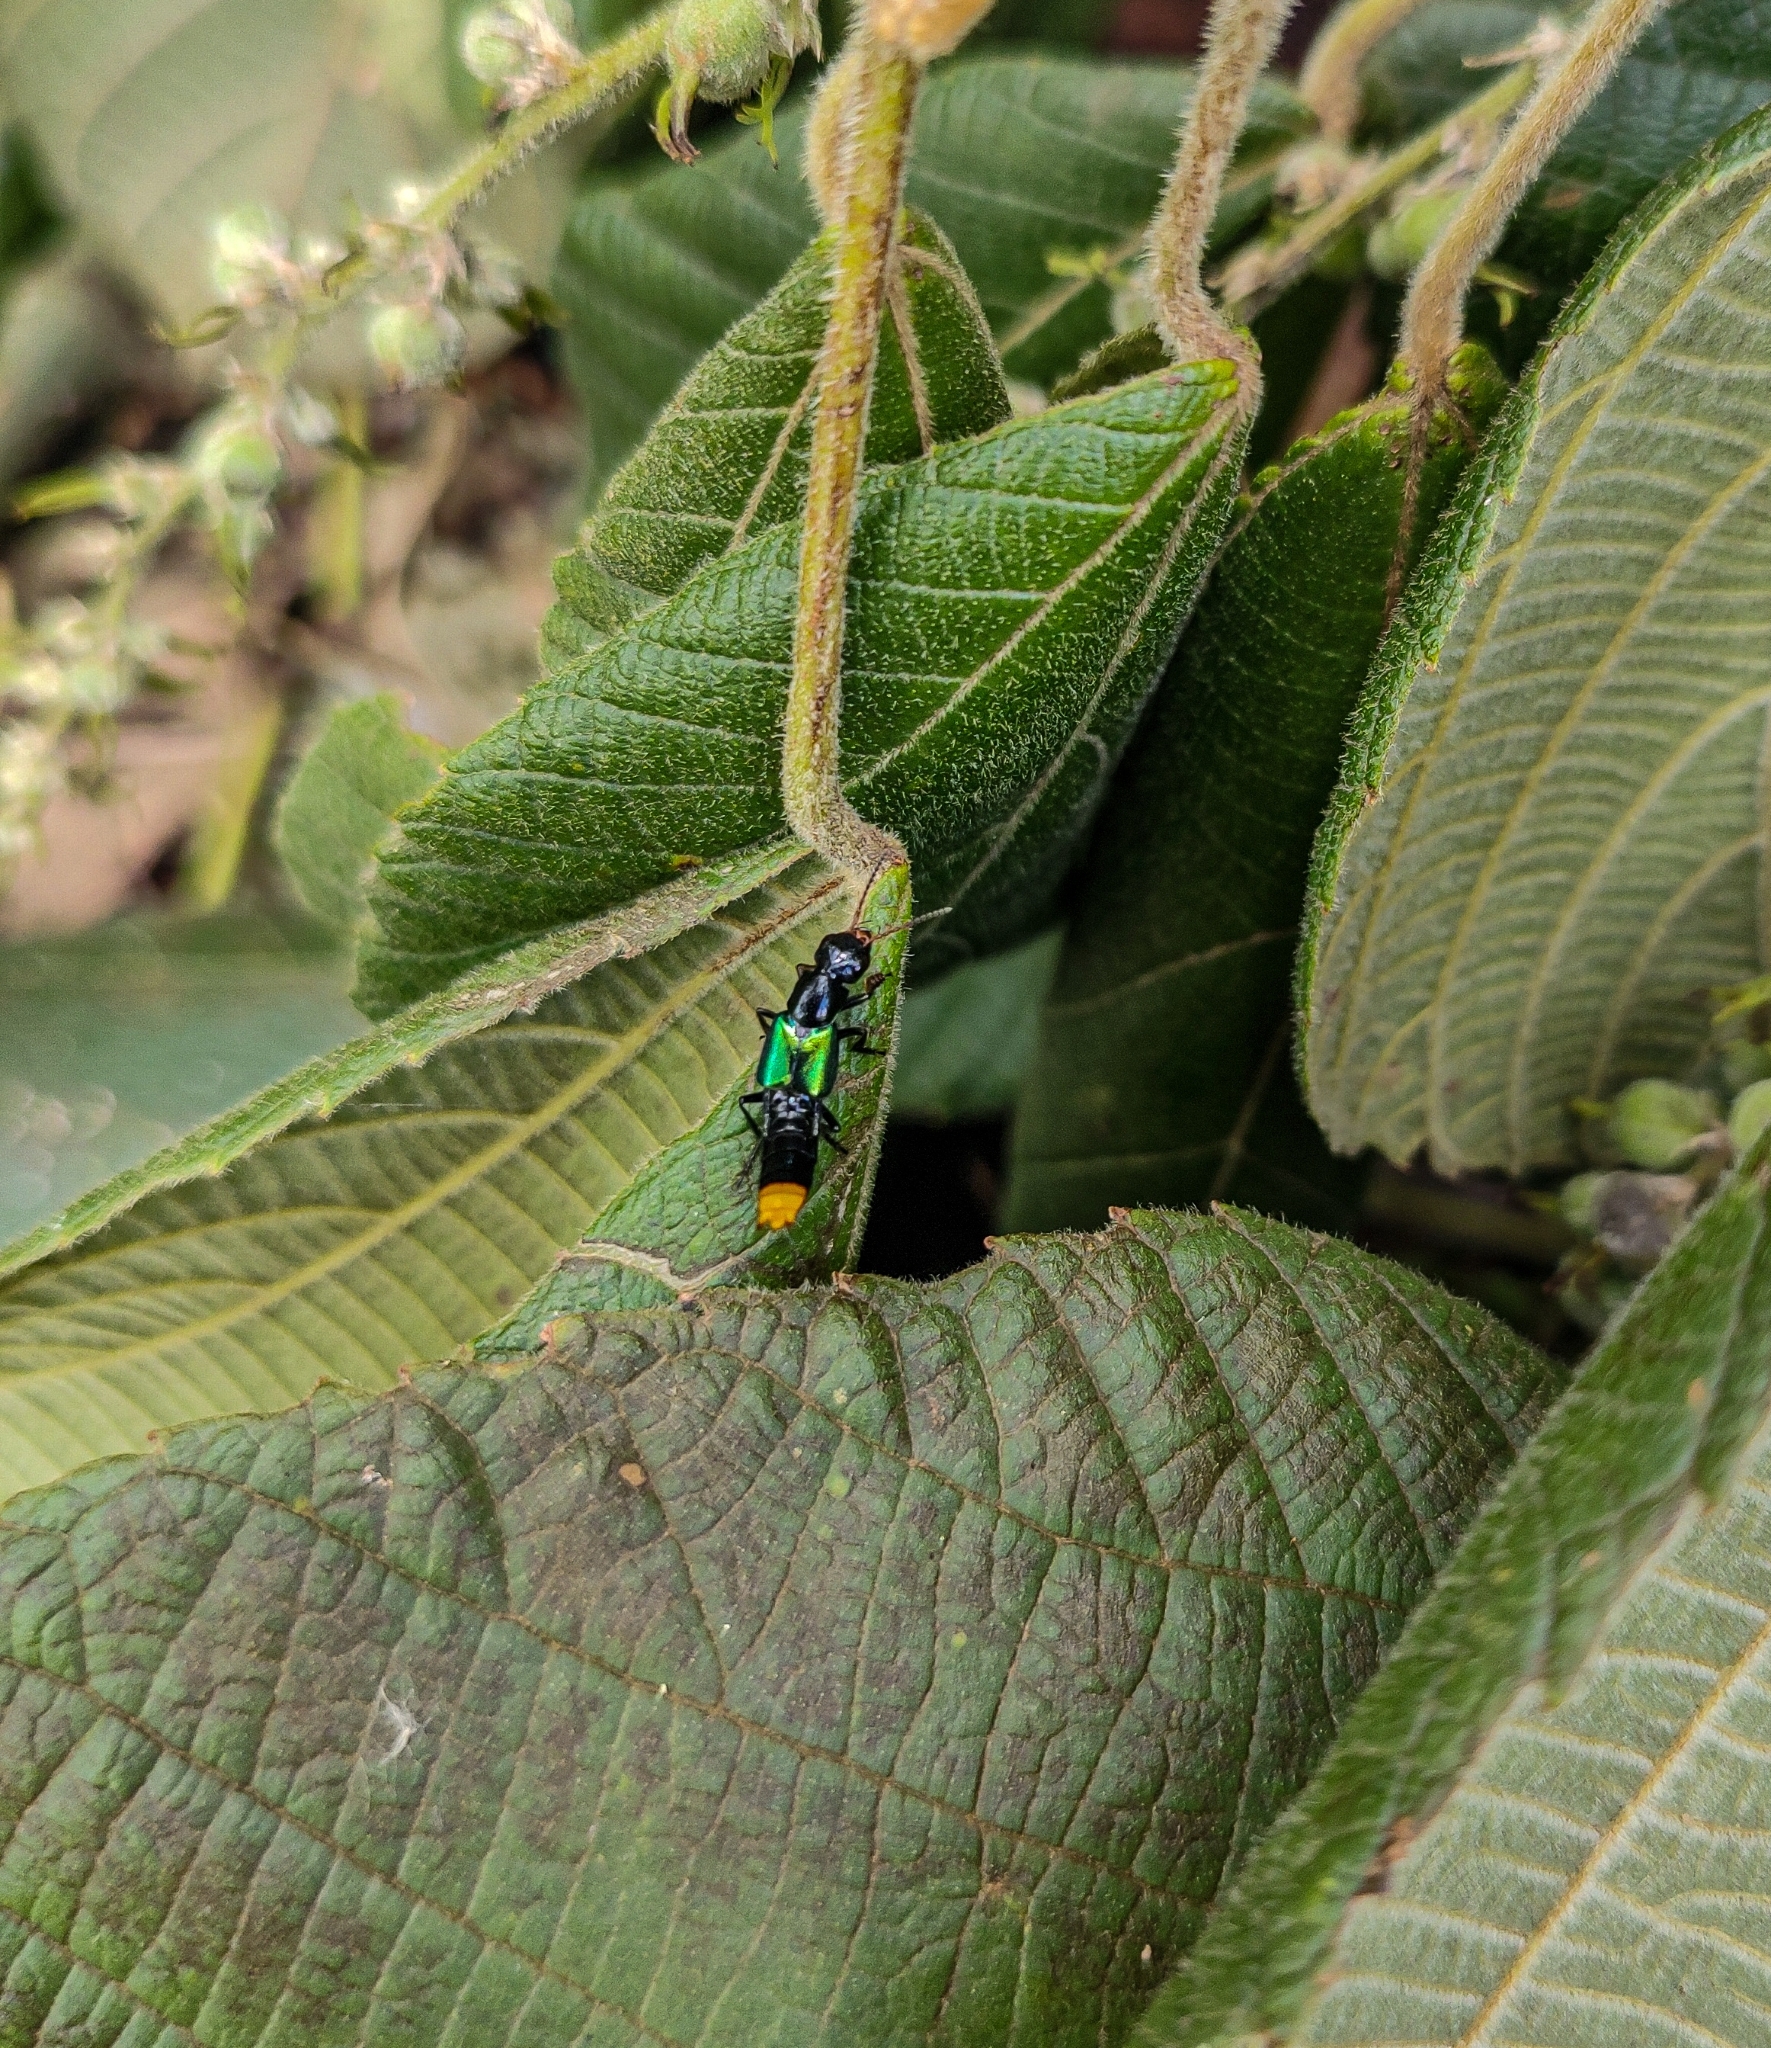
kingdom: Animalia
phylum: Arthropoda
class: Insecta
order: Coleoptera
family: Staphylinidae
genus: Photinopygus
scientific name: Photinopygus cyanelytrius
